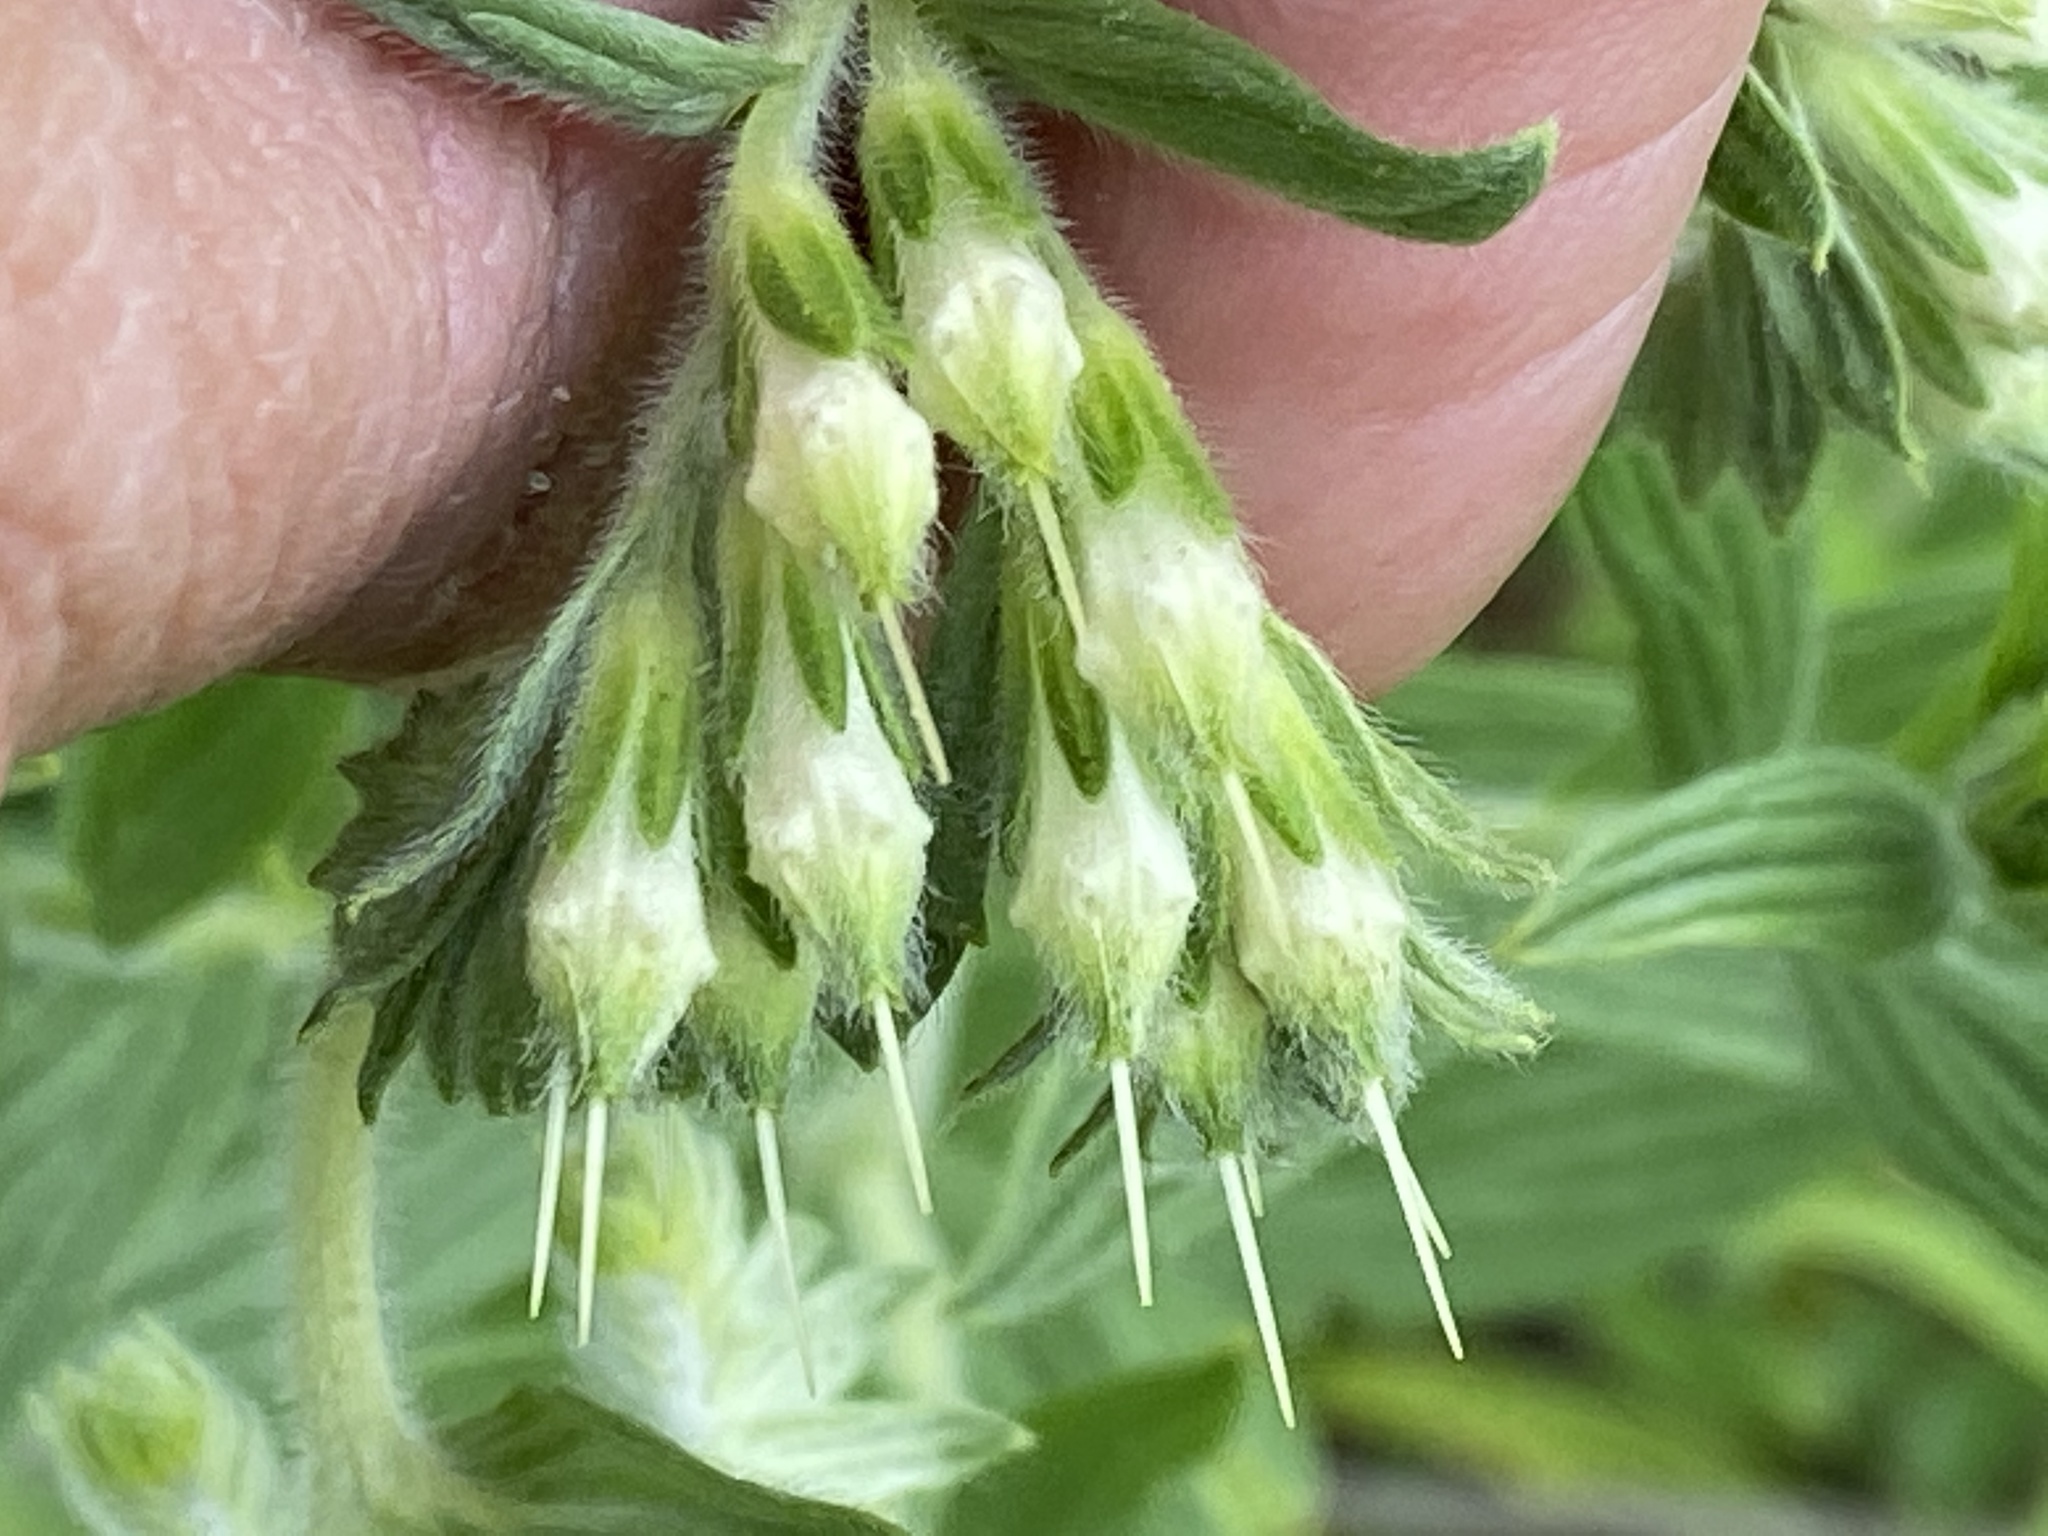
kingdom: Plantae
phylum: Tracheophyta
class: Magnoliopsida
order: Boraginales
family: Boraginaceae
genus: Lithospermum
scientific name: Lithospermum molle
